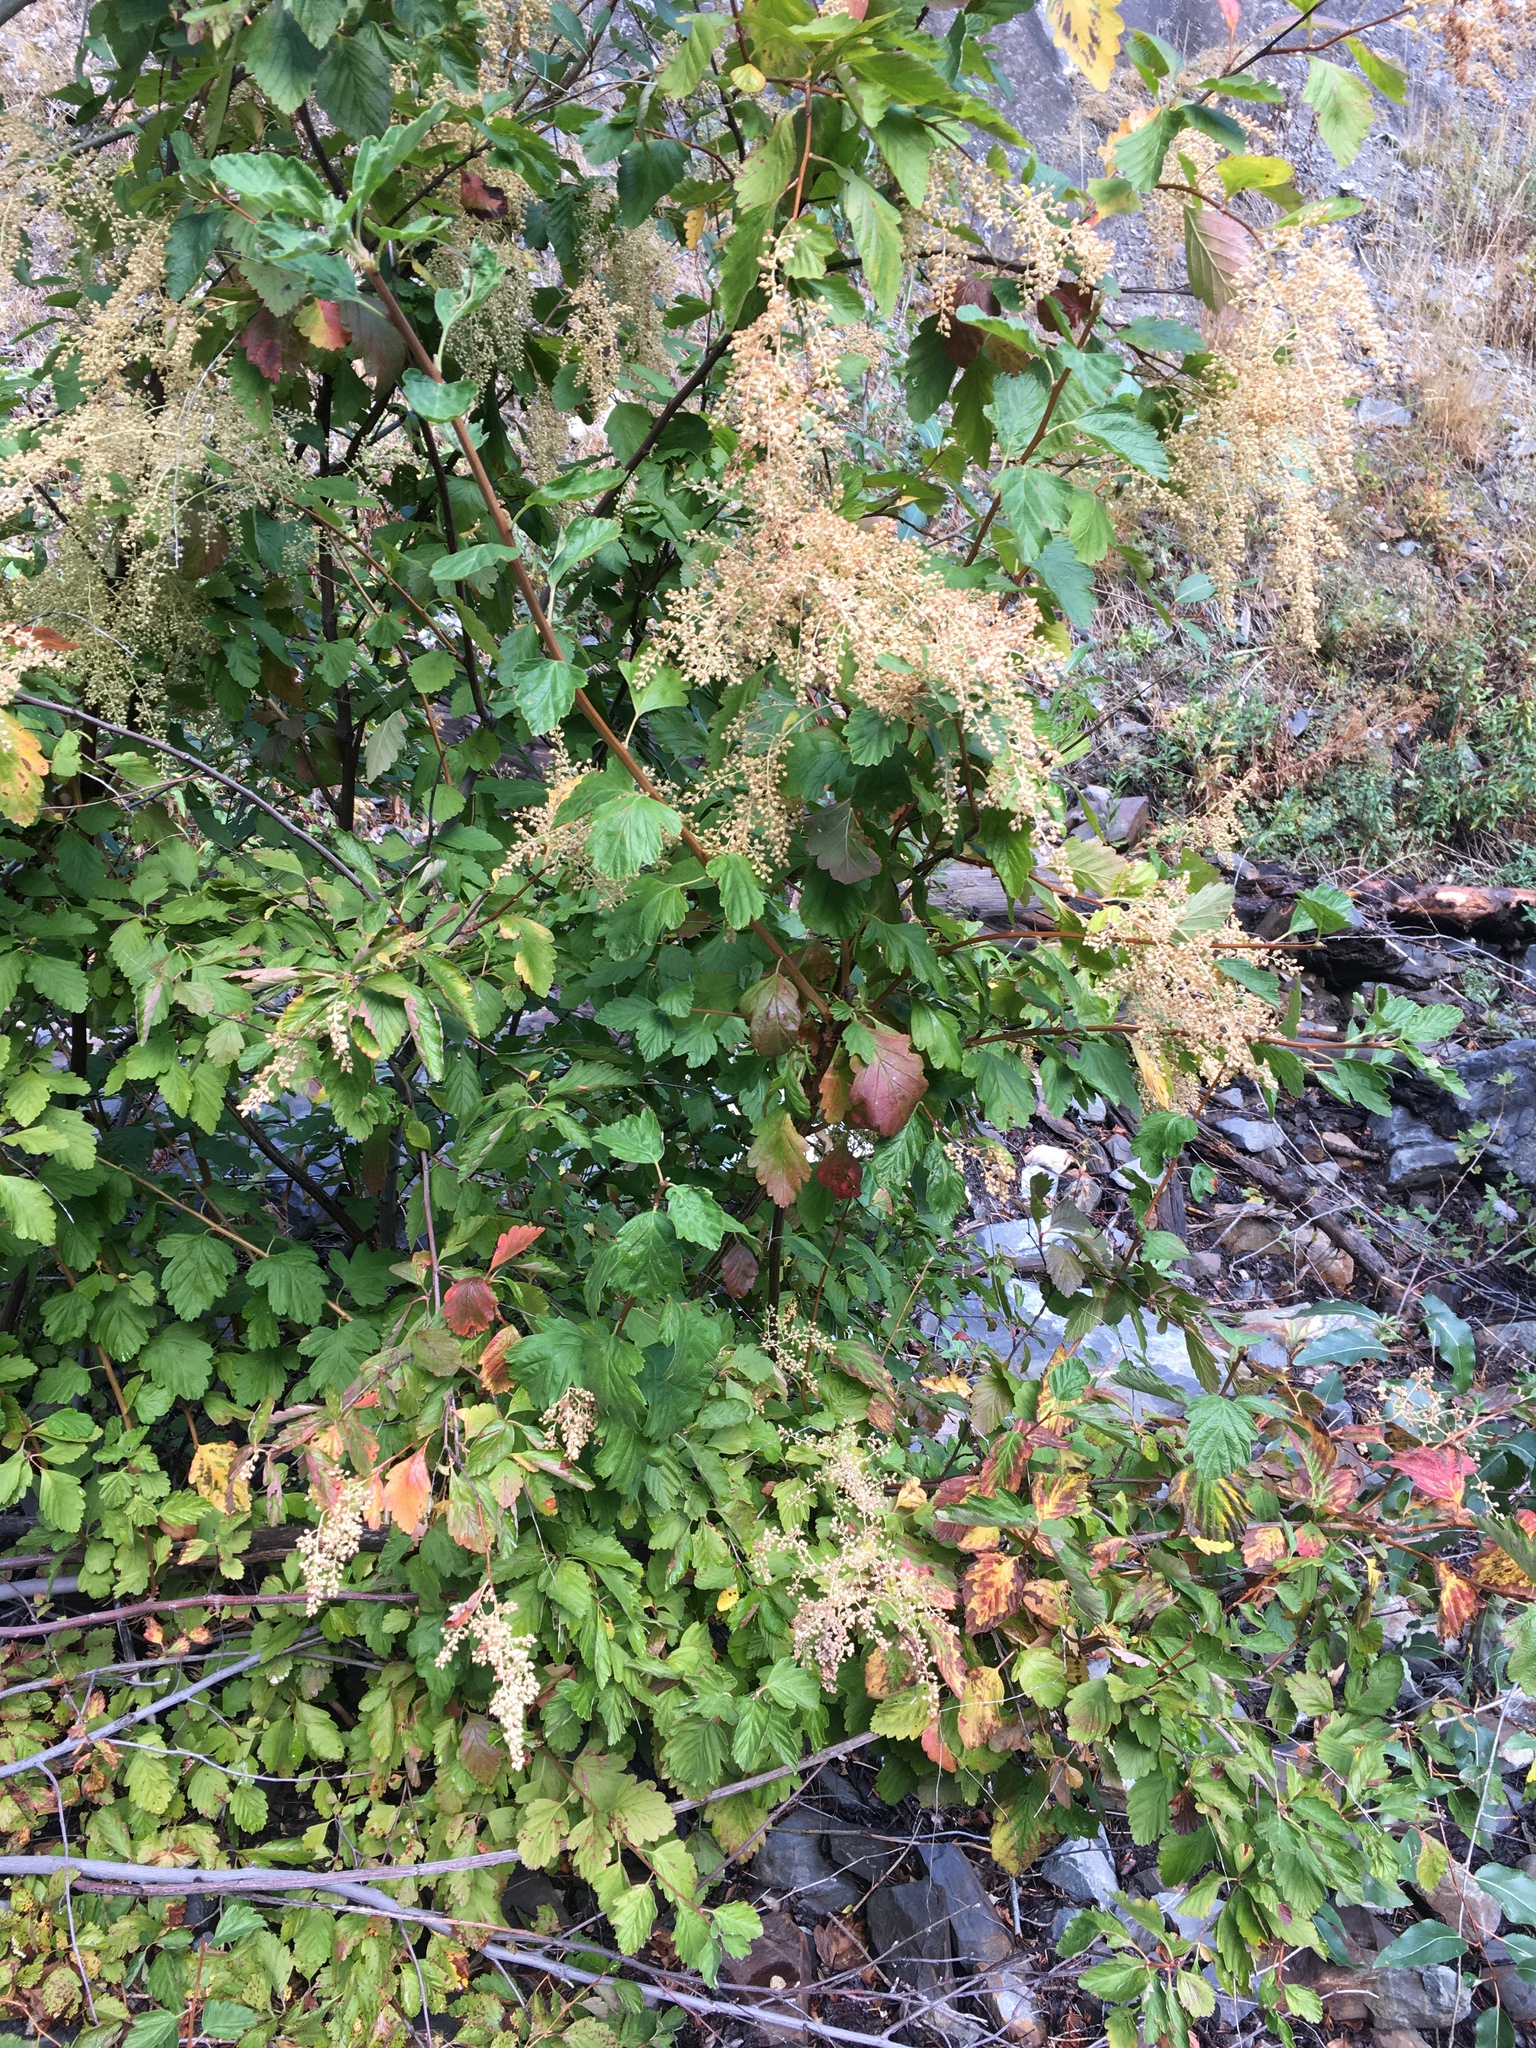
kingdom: Plantae
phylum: Tracheophyta
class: Magnoliopsida
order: Rosales
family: Rosaceae
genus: Holodiscus
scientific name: Holodiscus discolor
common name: Oceanspray
